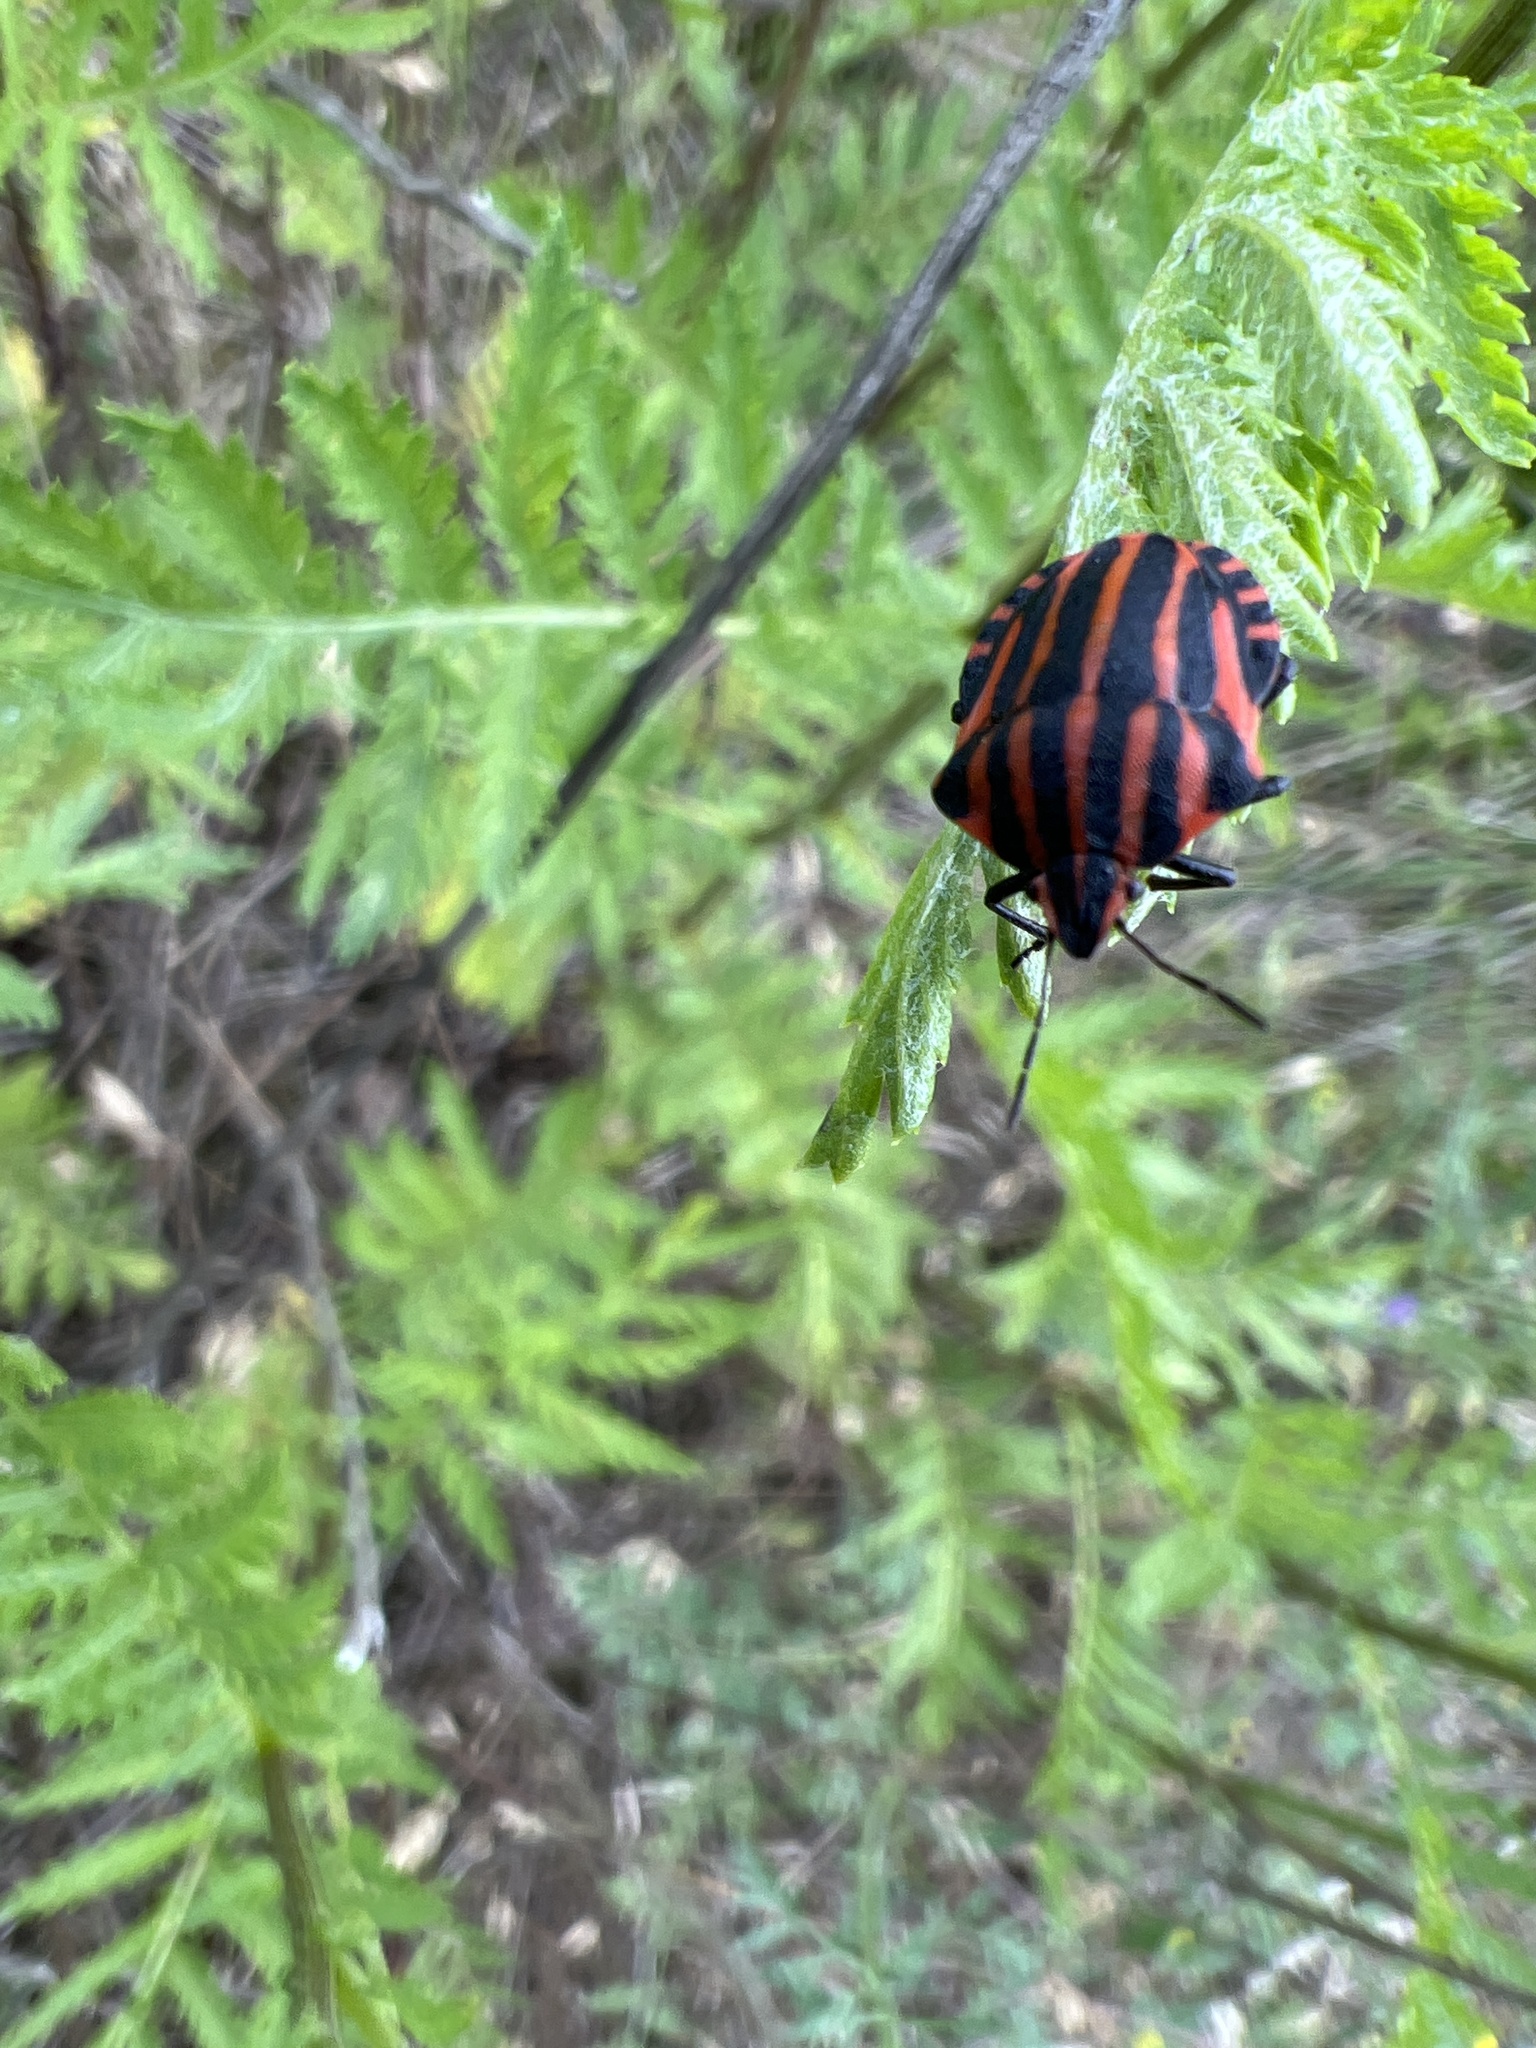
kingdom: Animalia
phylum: Arthropoda
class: Insecta
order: Hemiptera
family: Pentatomidae
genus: Graphosoma
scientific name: Graphosoma italicum
